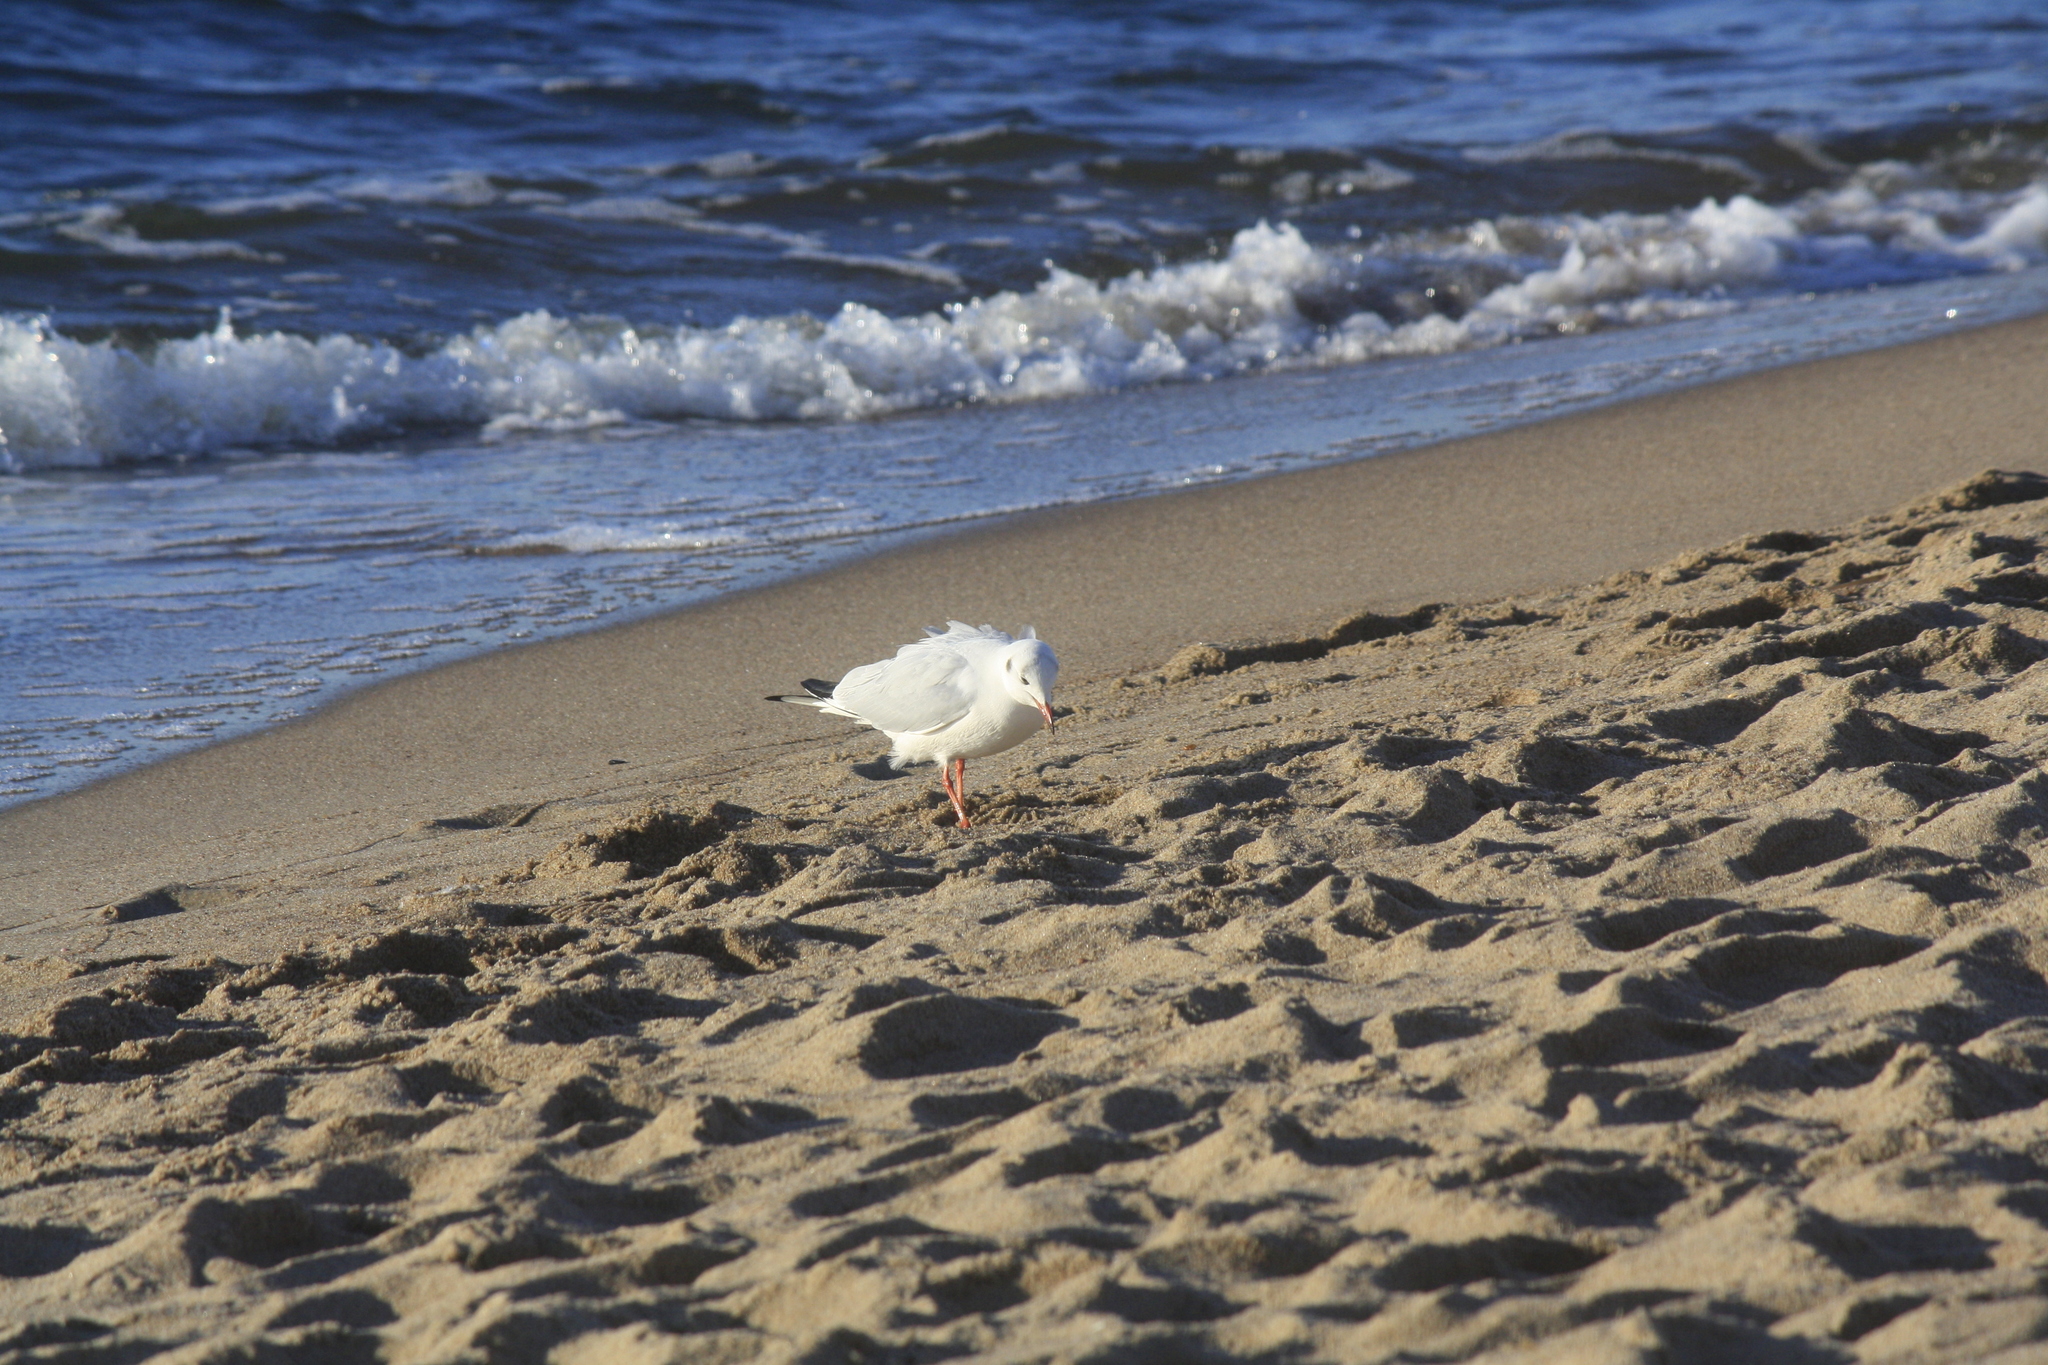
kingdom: Animalia
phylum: Chordata
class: Aves
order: Charadriiformes
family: Laridae
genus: Chroicocephalus
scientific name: Chroicocephalus ridibundus
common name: Black-headed gull
